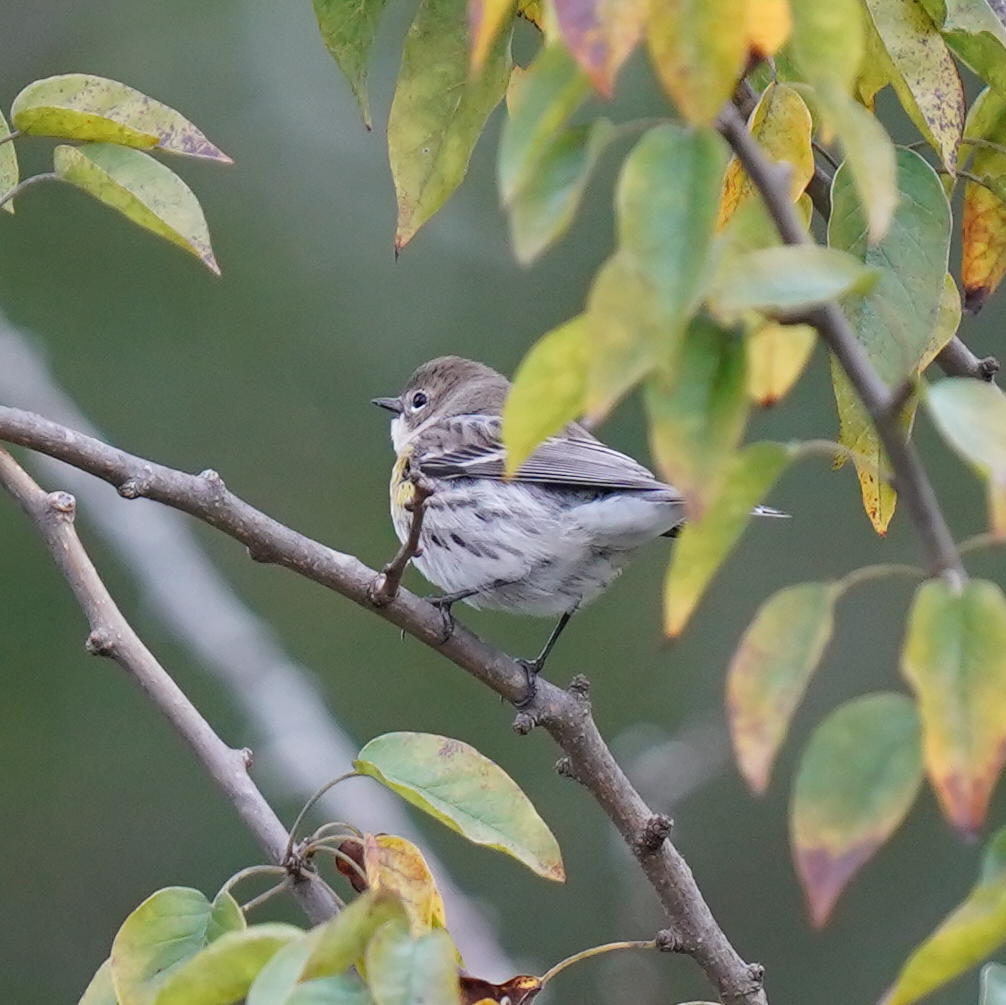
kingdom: Animalia
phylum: Chordata
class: Aves
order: Passeriformes
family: Parulidae
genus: Setophaga
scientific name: Setophaga coronata
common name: Myrtle warbler
